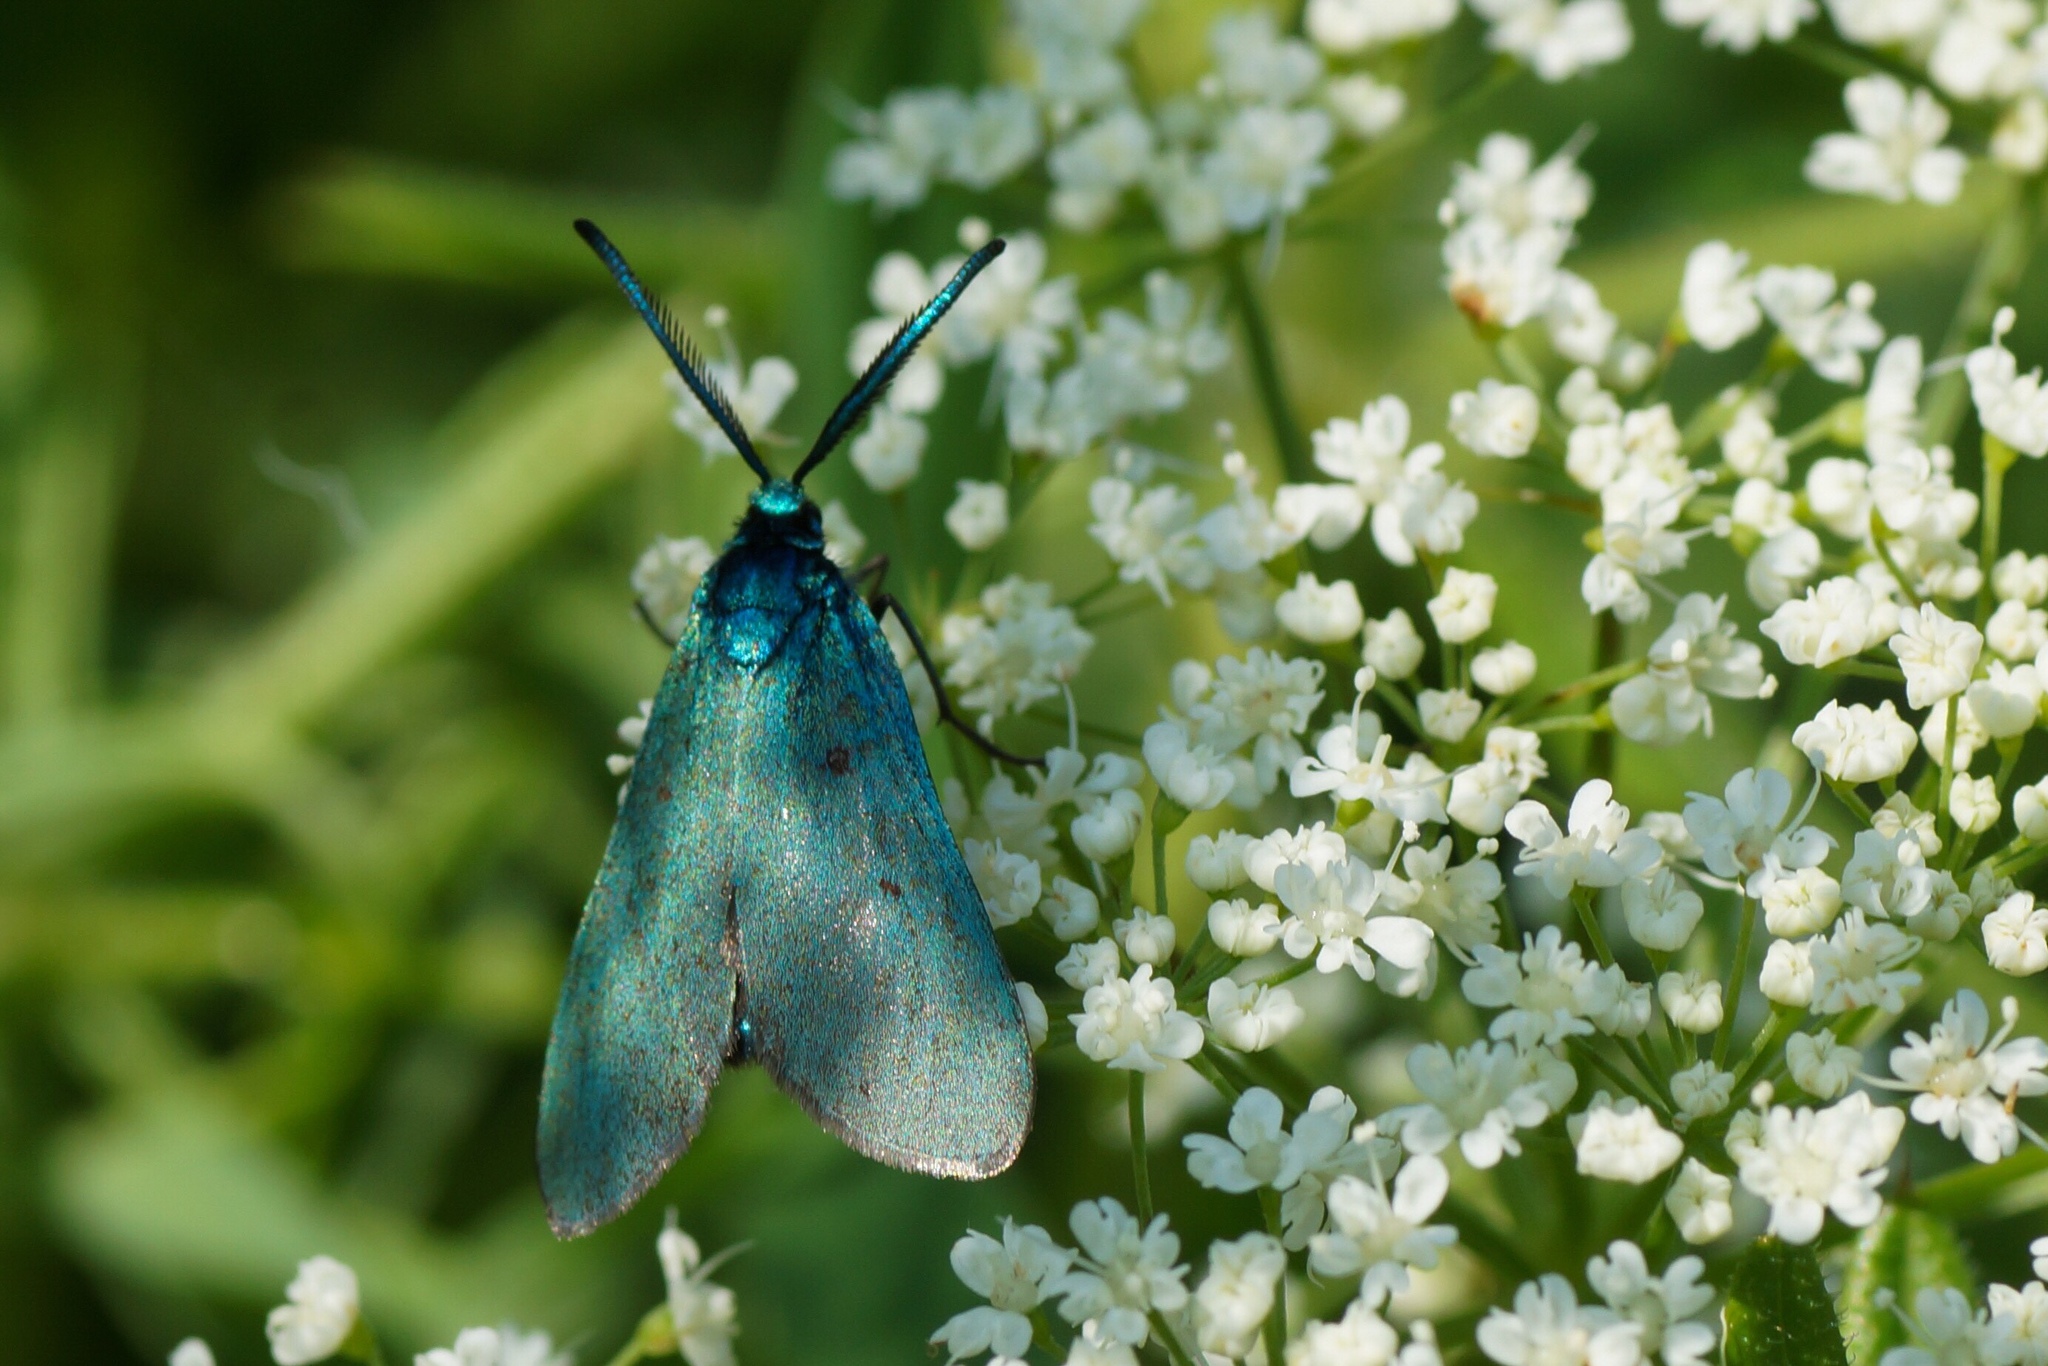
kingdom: Animalia
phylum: Arthropoda
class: Insecta
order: Lepidoptera
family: Zygaenidae
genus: Adscita
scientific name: Adscita statices
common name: Forester
